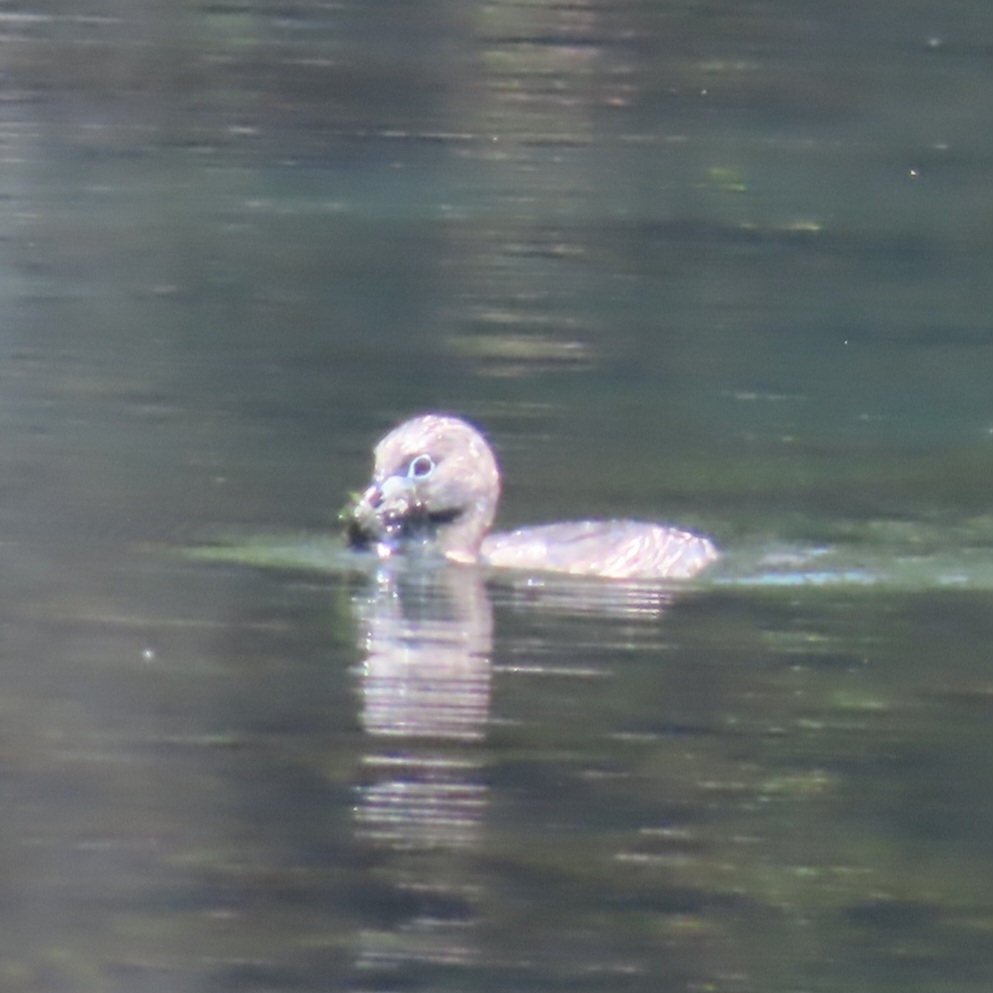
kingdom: Animalia
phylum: Chordata
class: Aves
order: Podicipediformes
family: Podicipedidae
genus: Podilymbus
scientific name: Podilymbus podiceps
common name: Pied-billed grebe
